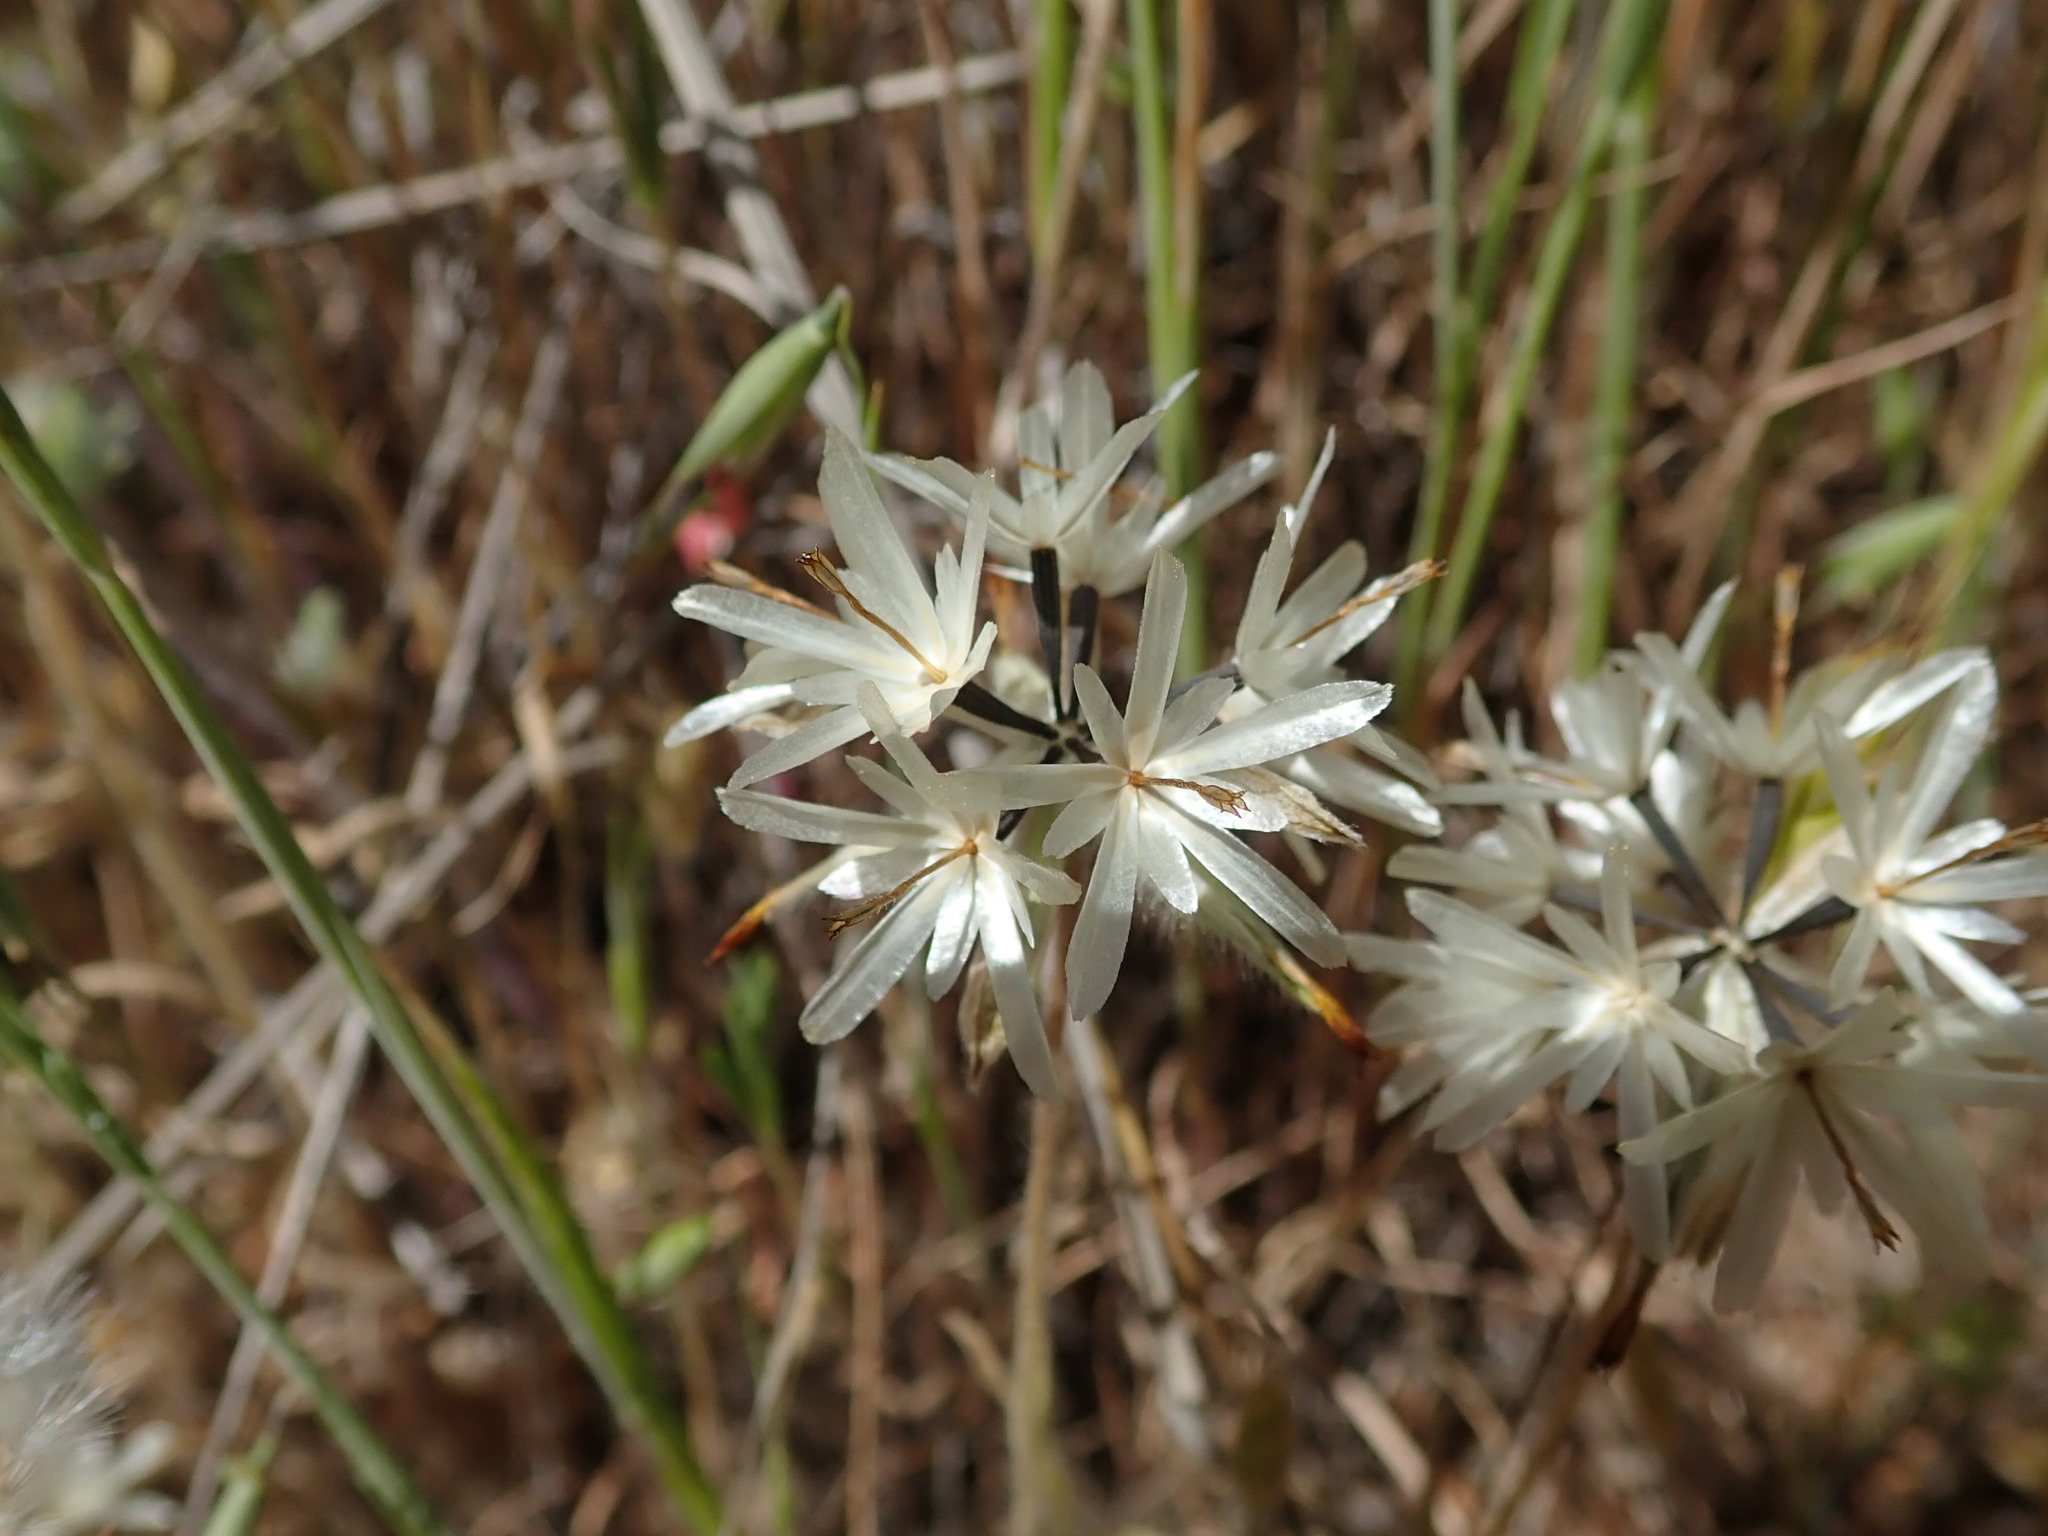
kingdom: Plantae
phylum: Tracheophyta
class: Magnoliopsida
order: Asterales
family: Asteraceae
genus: Achyrachaena
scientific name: Achyrachaena mollis
